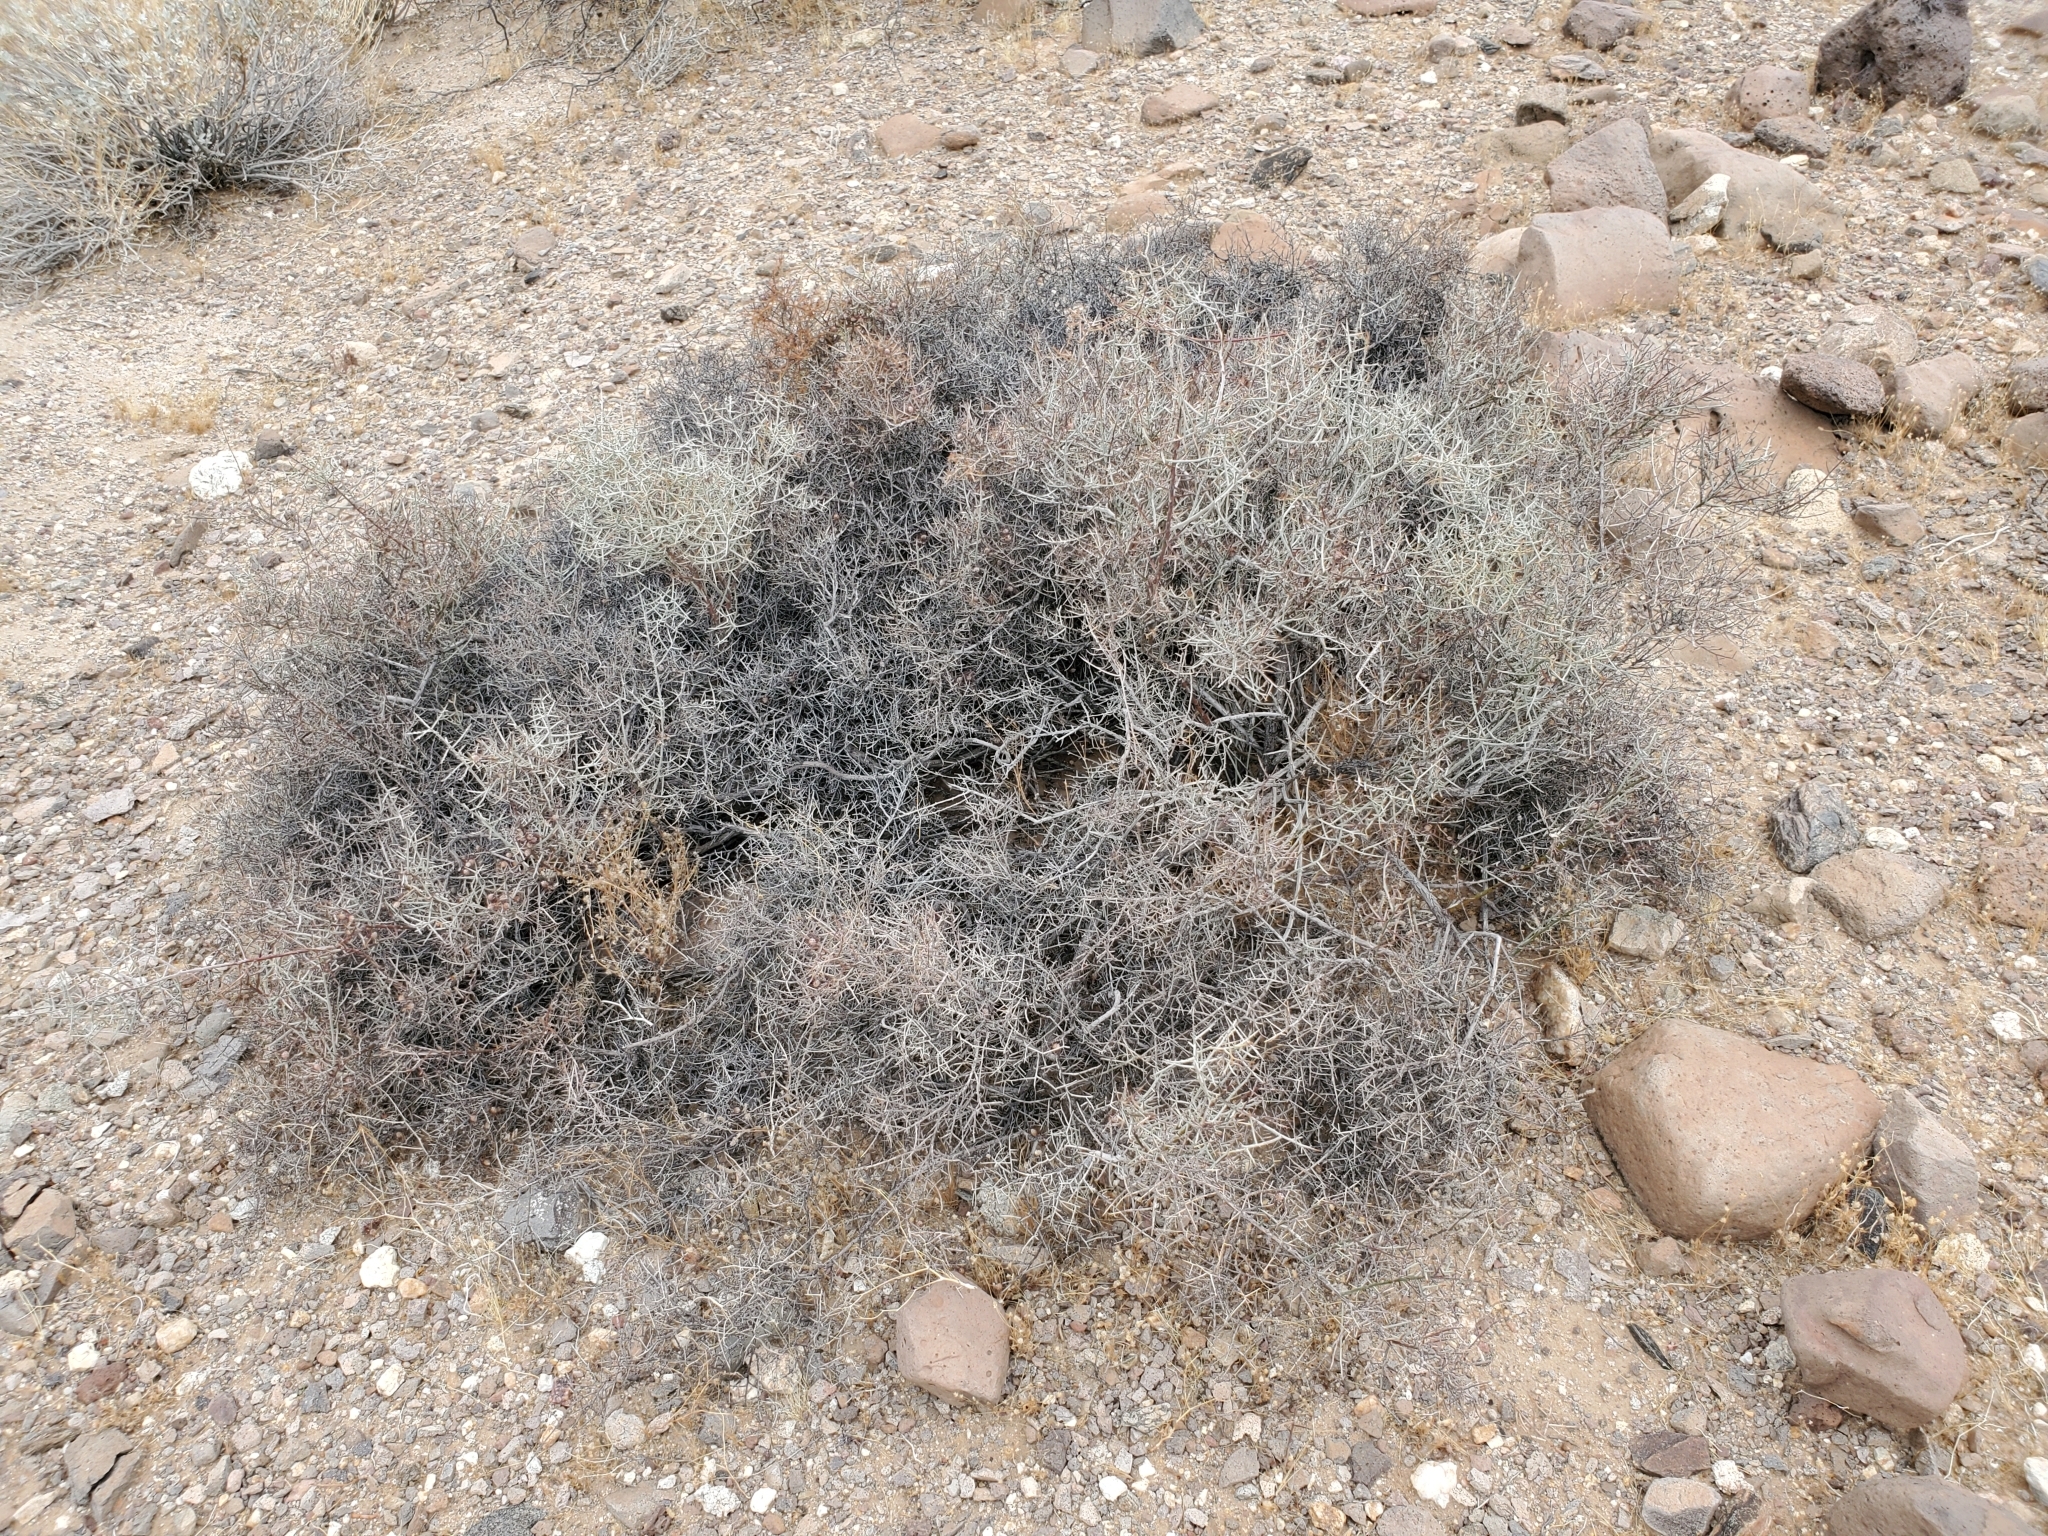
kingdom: Plantae
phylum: Tracheophyta
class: Magnoliopsida
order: Zygophyllales
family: Krameriaceae
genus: Krameria
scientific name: Krameria bicolor
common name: White ratany
